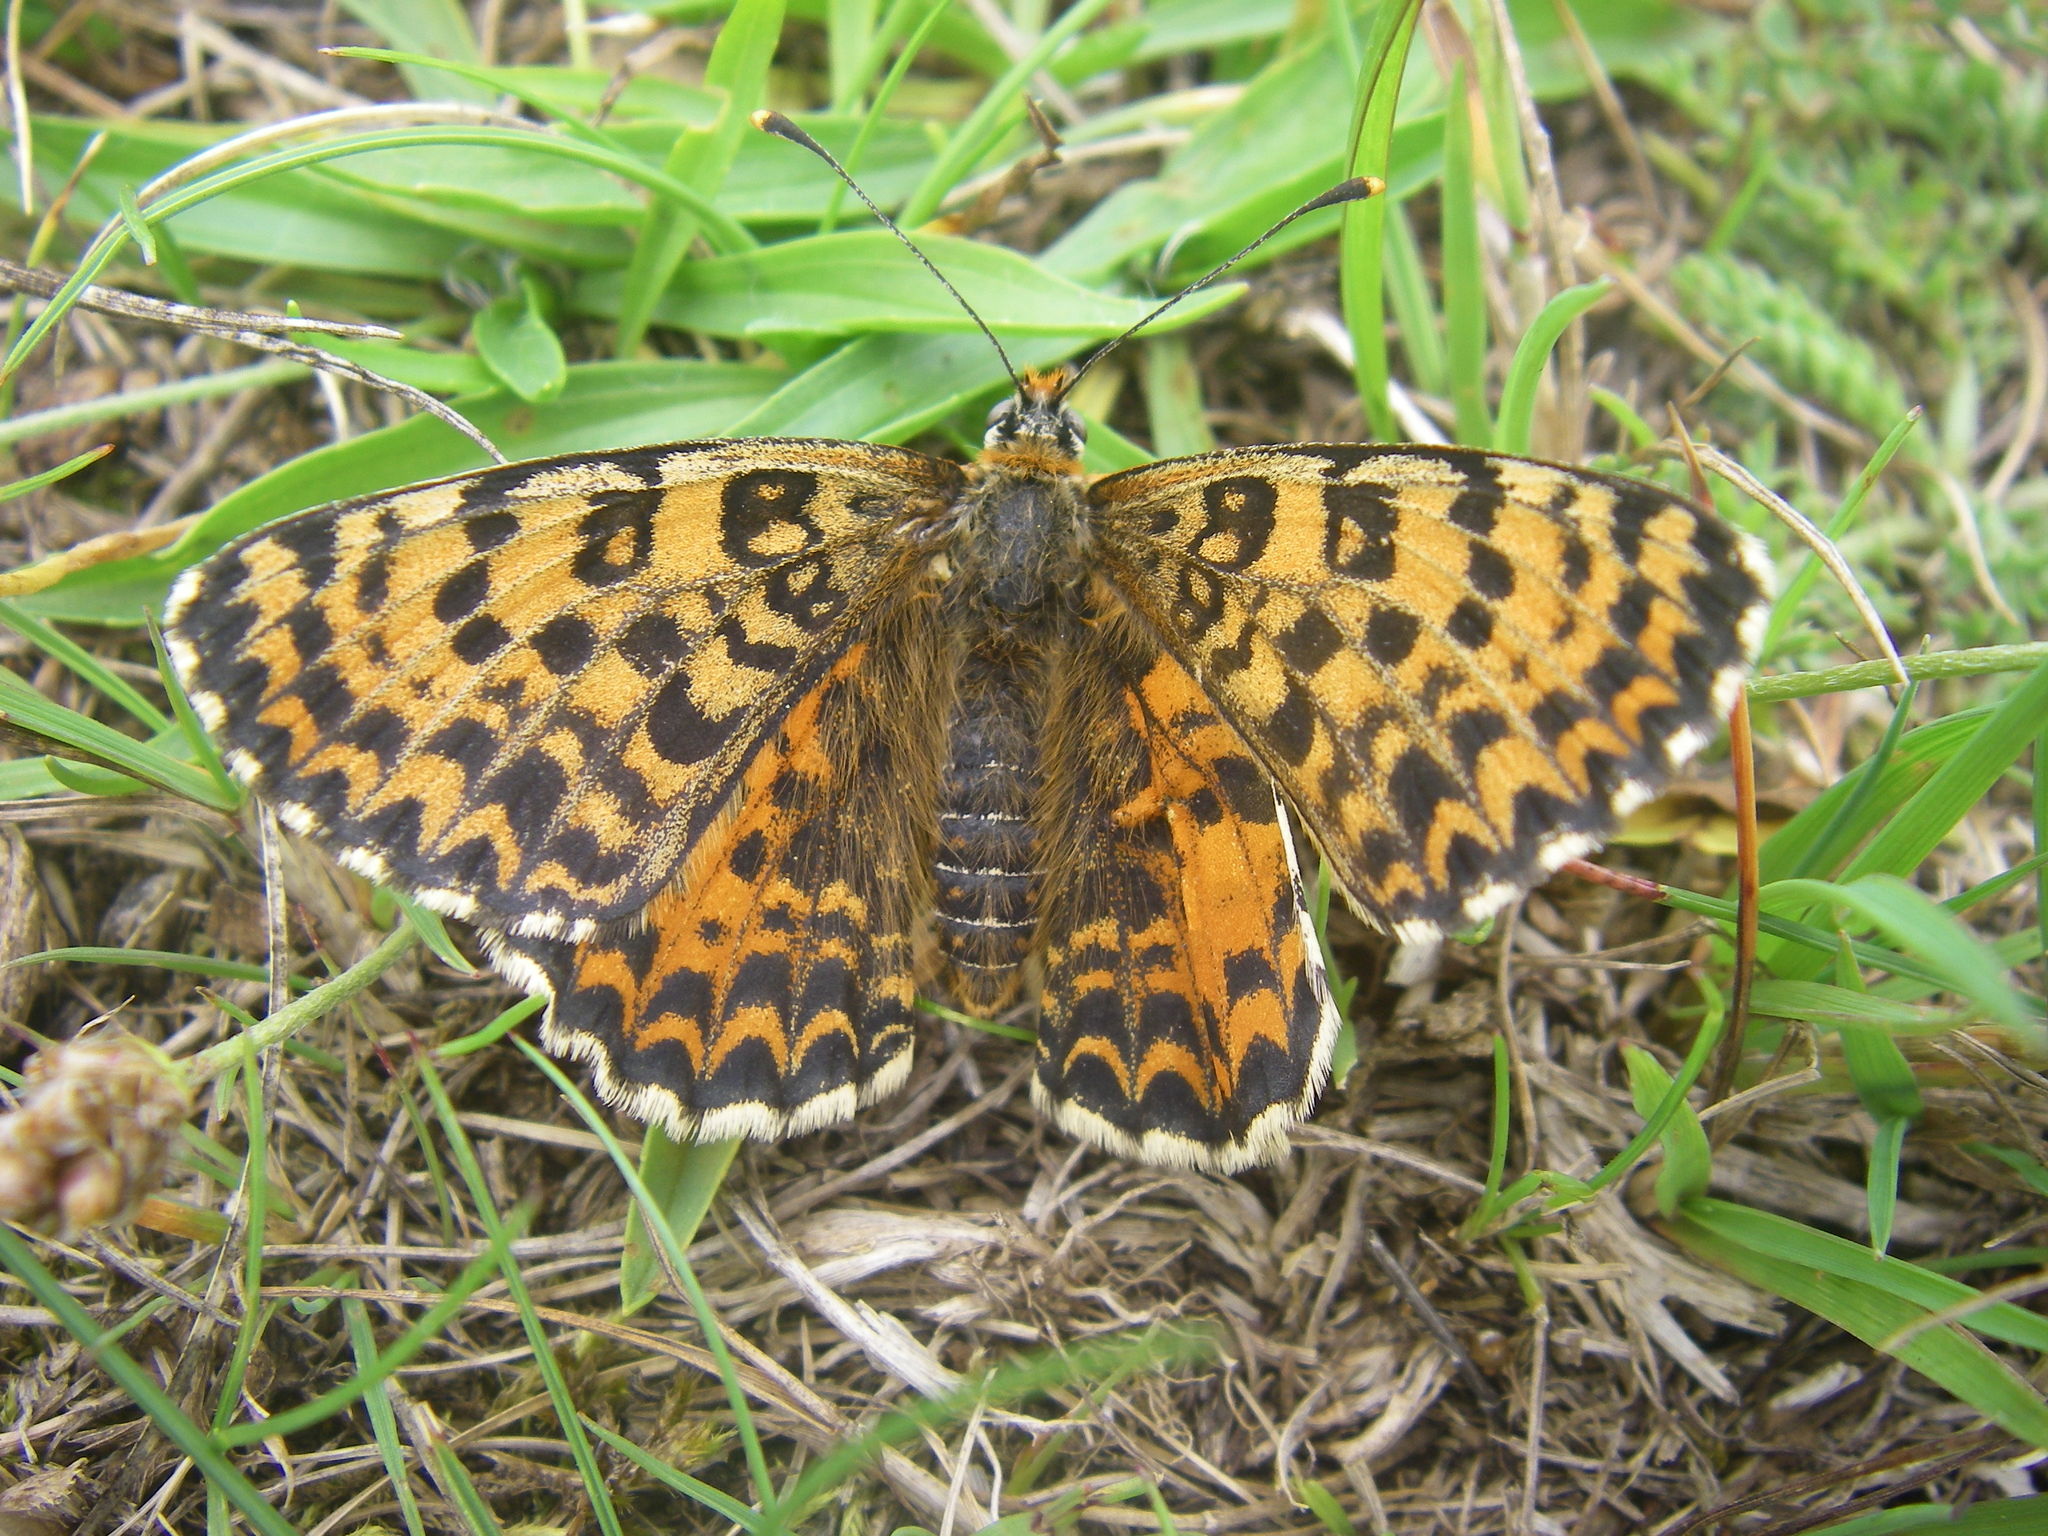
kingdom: Animalia
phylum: Arthropoda
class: Insecta
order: Lepidoptera
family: Nymphalidae
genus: Melitaea
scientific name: Melitaea didyma
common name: Spotted fritillary
